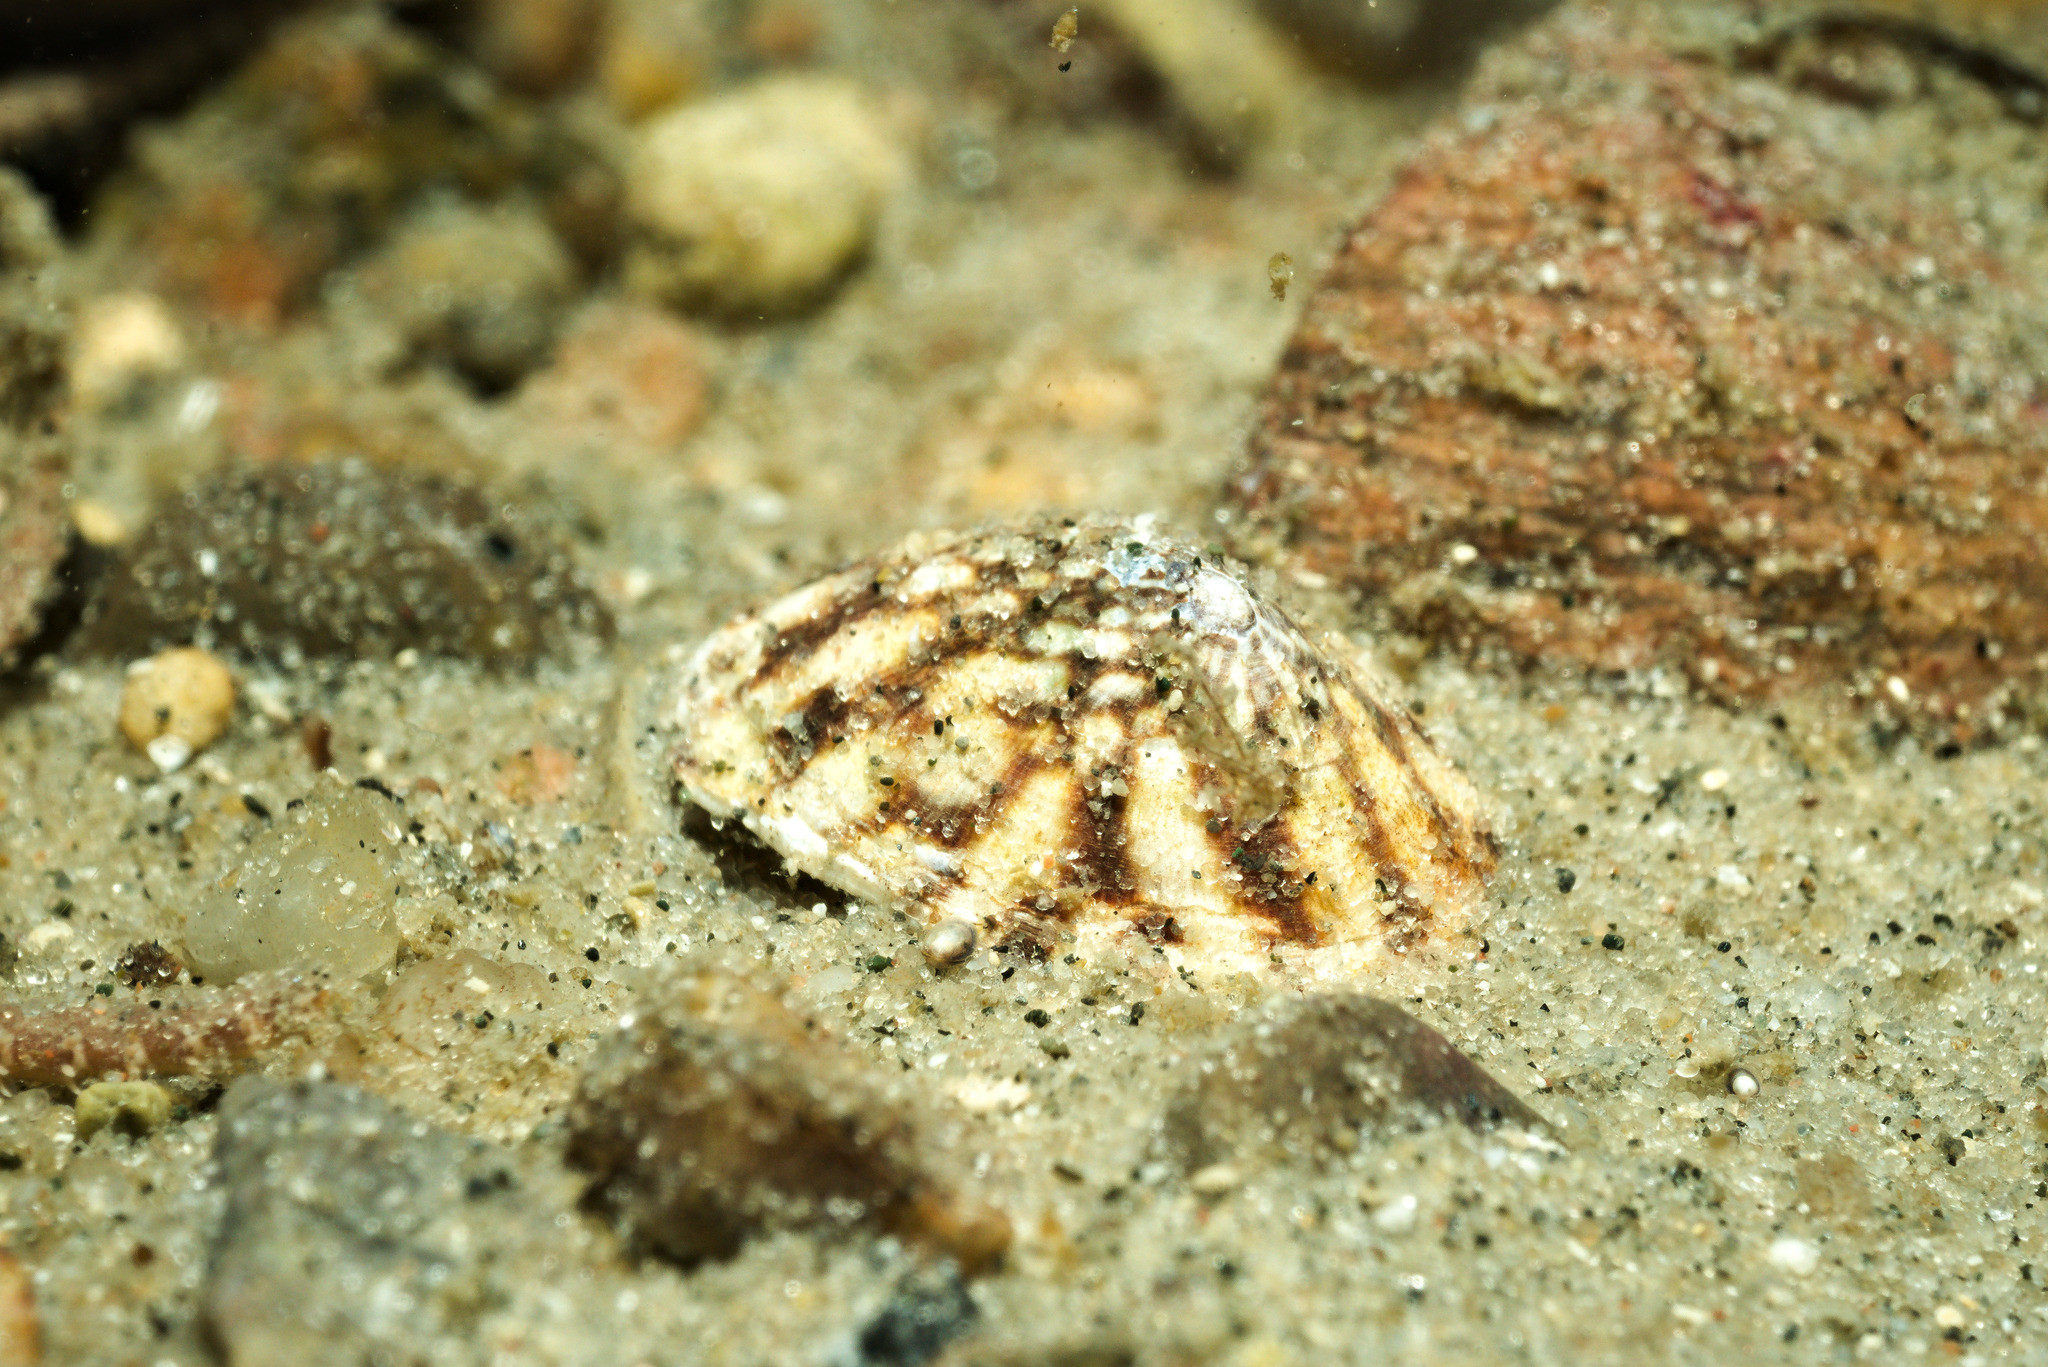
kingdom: Animalia
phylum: Mollusca
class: Gastropoda
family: Lottiidae
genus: Testudinalia
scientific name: Testudinalia testudinalis
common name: Common tortoiseshell limpet
